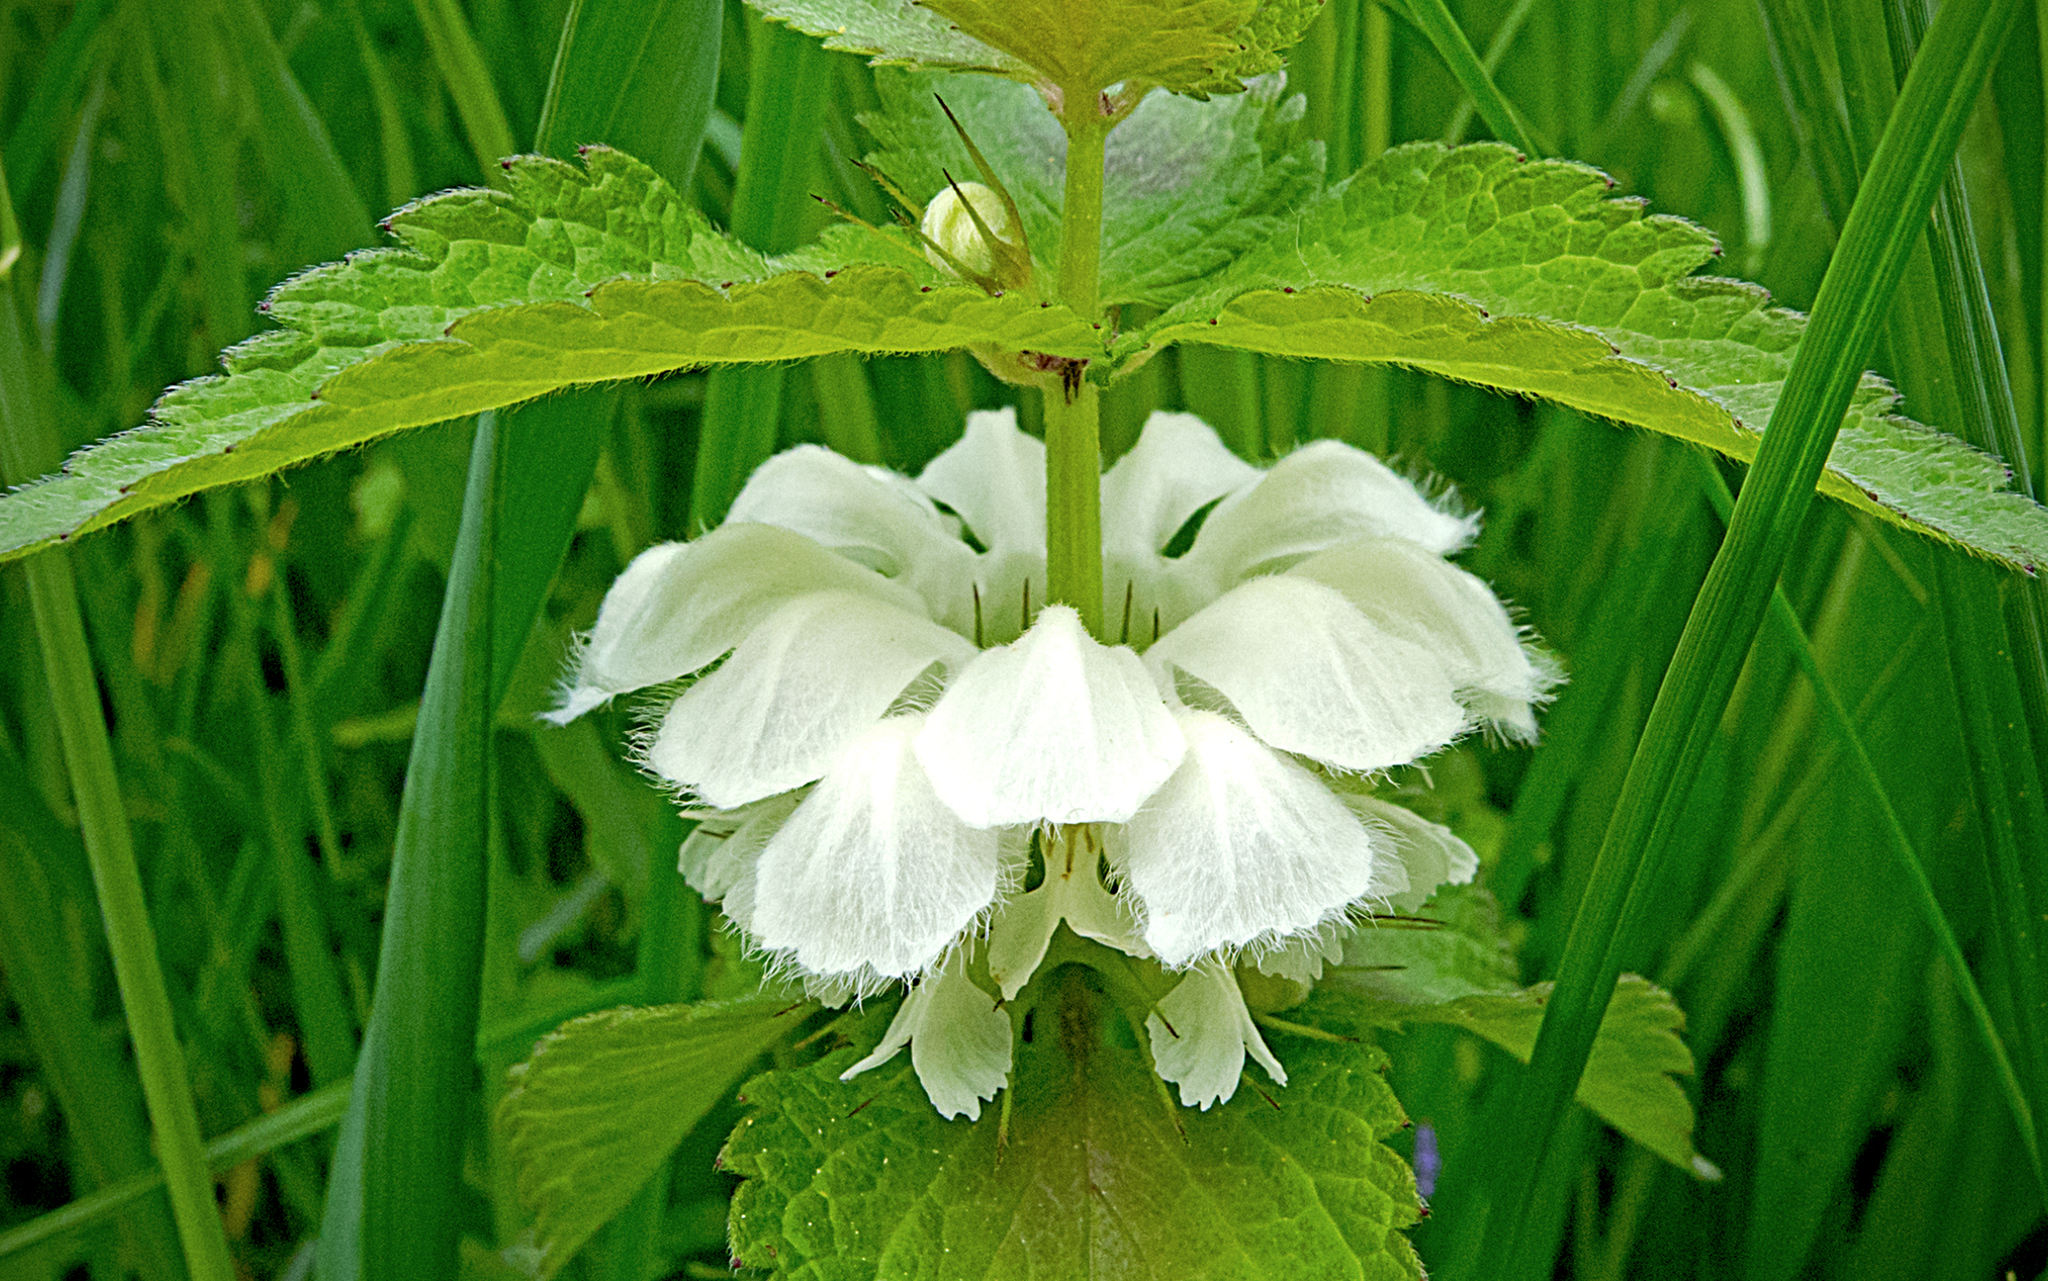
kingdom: Plantae
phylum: Tracheophyta
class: Magnoliopsida
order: Lamiales
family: Lamiaceae
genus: Lamium
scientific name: Lamium album
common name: White dead-nettle
